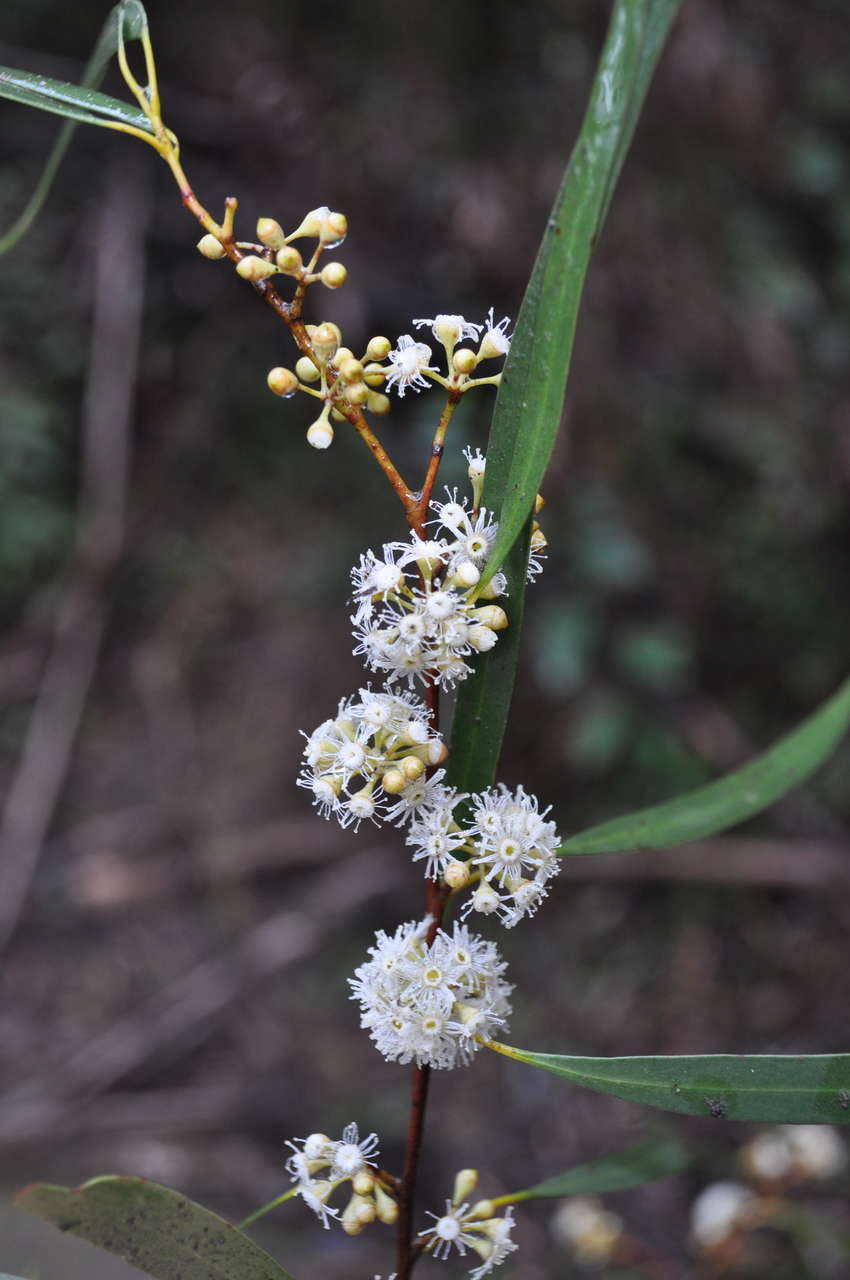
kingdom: Plantae
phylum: Tracheophyta
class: Magnoliopsida
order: Myrtales
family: Myrtaceae
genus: Eucalyptus
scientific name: Eucalyptus elata
